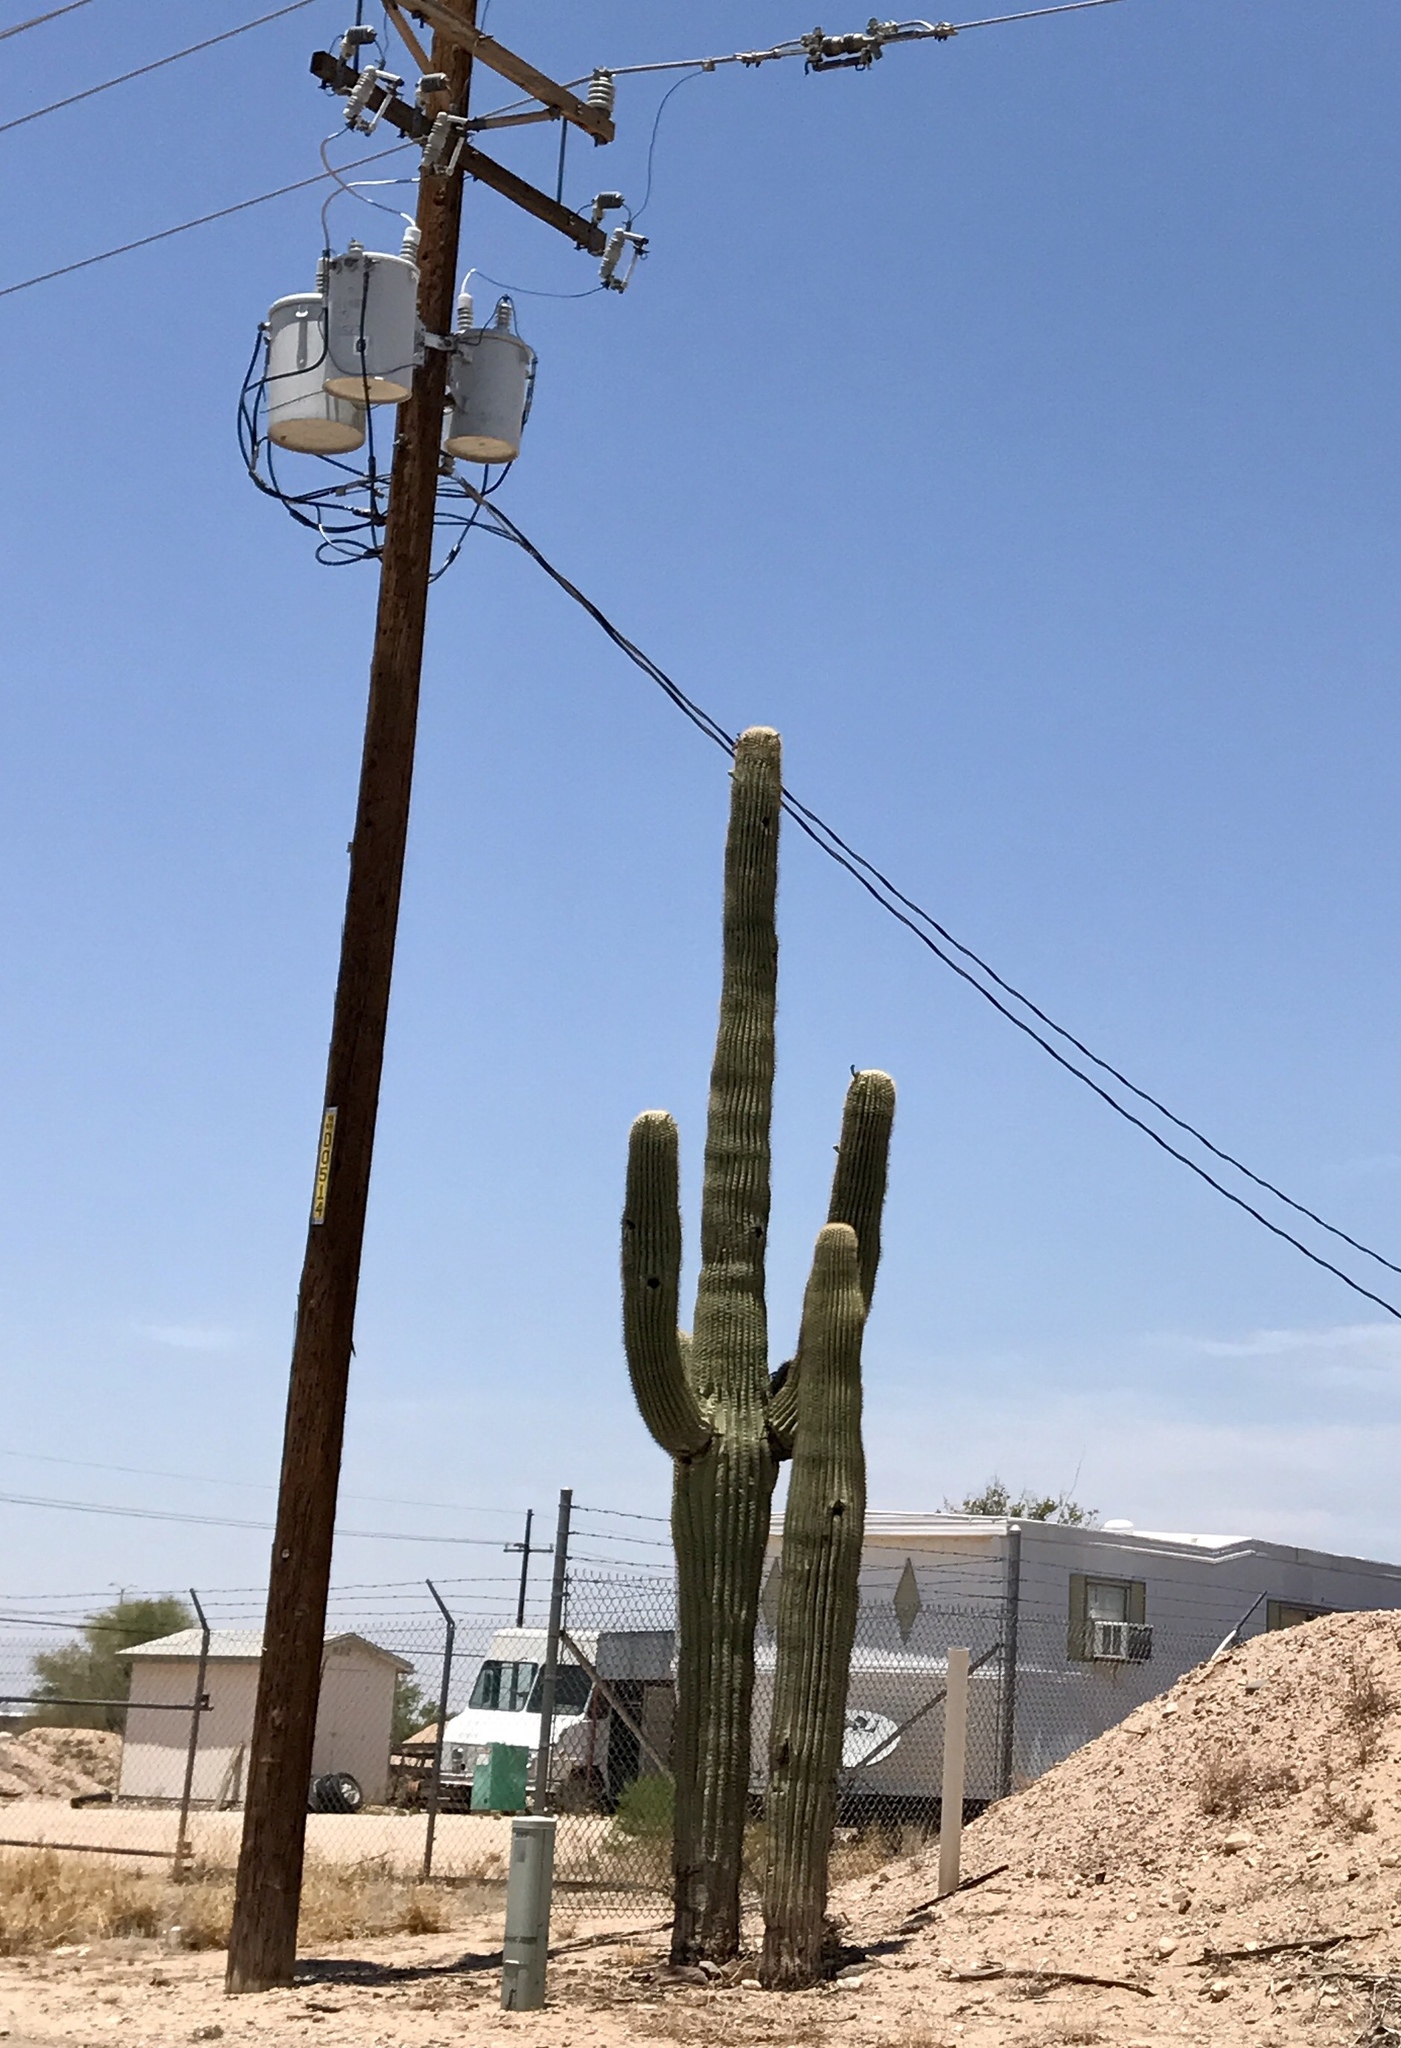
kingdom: Plantae
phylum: Tracheophyta
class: Magnoliopsida
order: Caryophyllales
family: Cactaceae
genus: Carnegiea
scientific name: Carnegiea gigantea
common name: Saguaro
